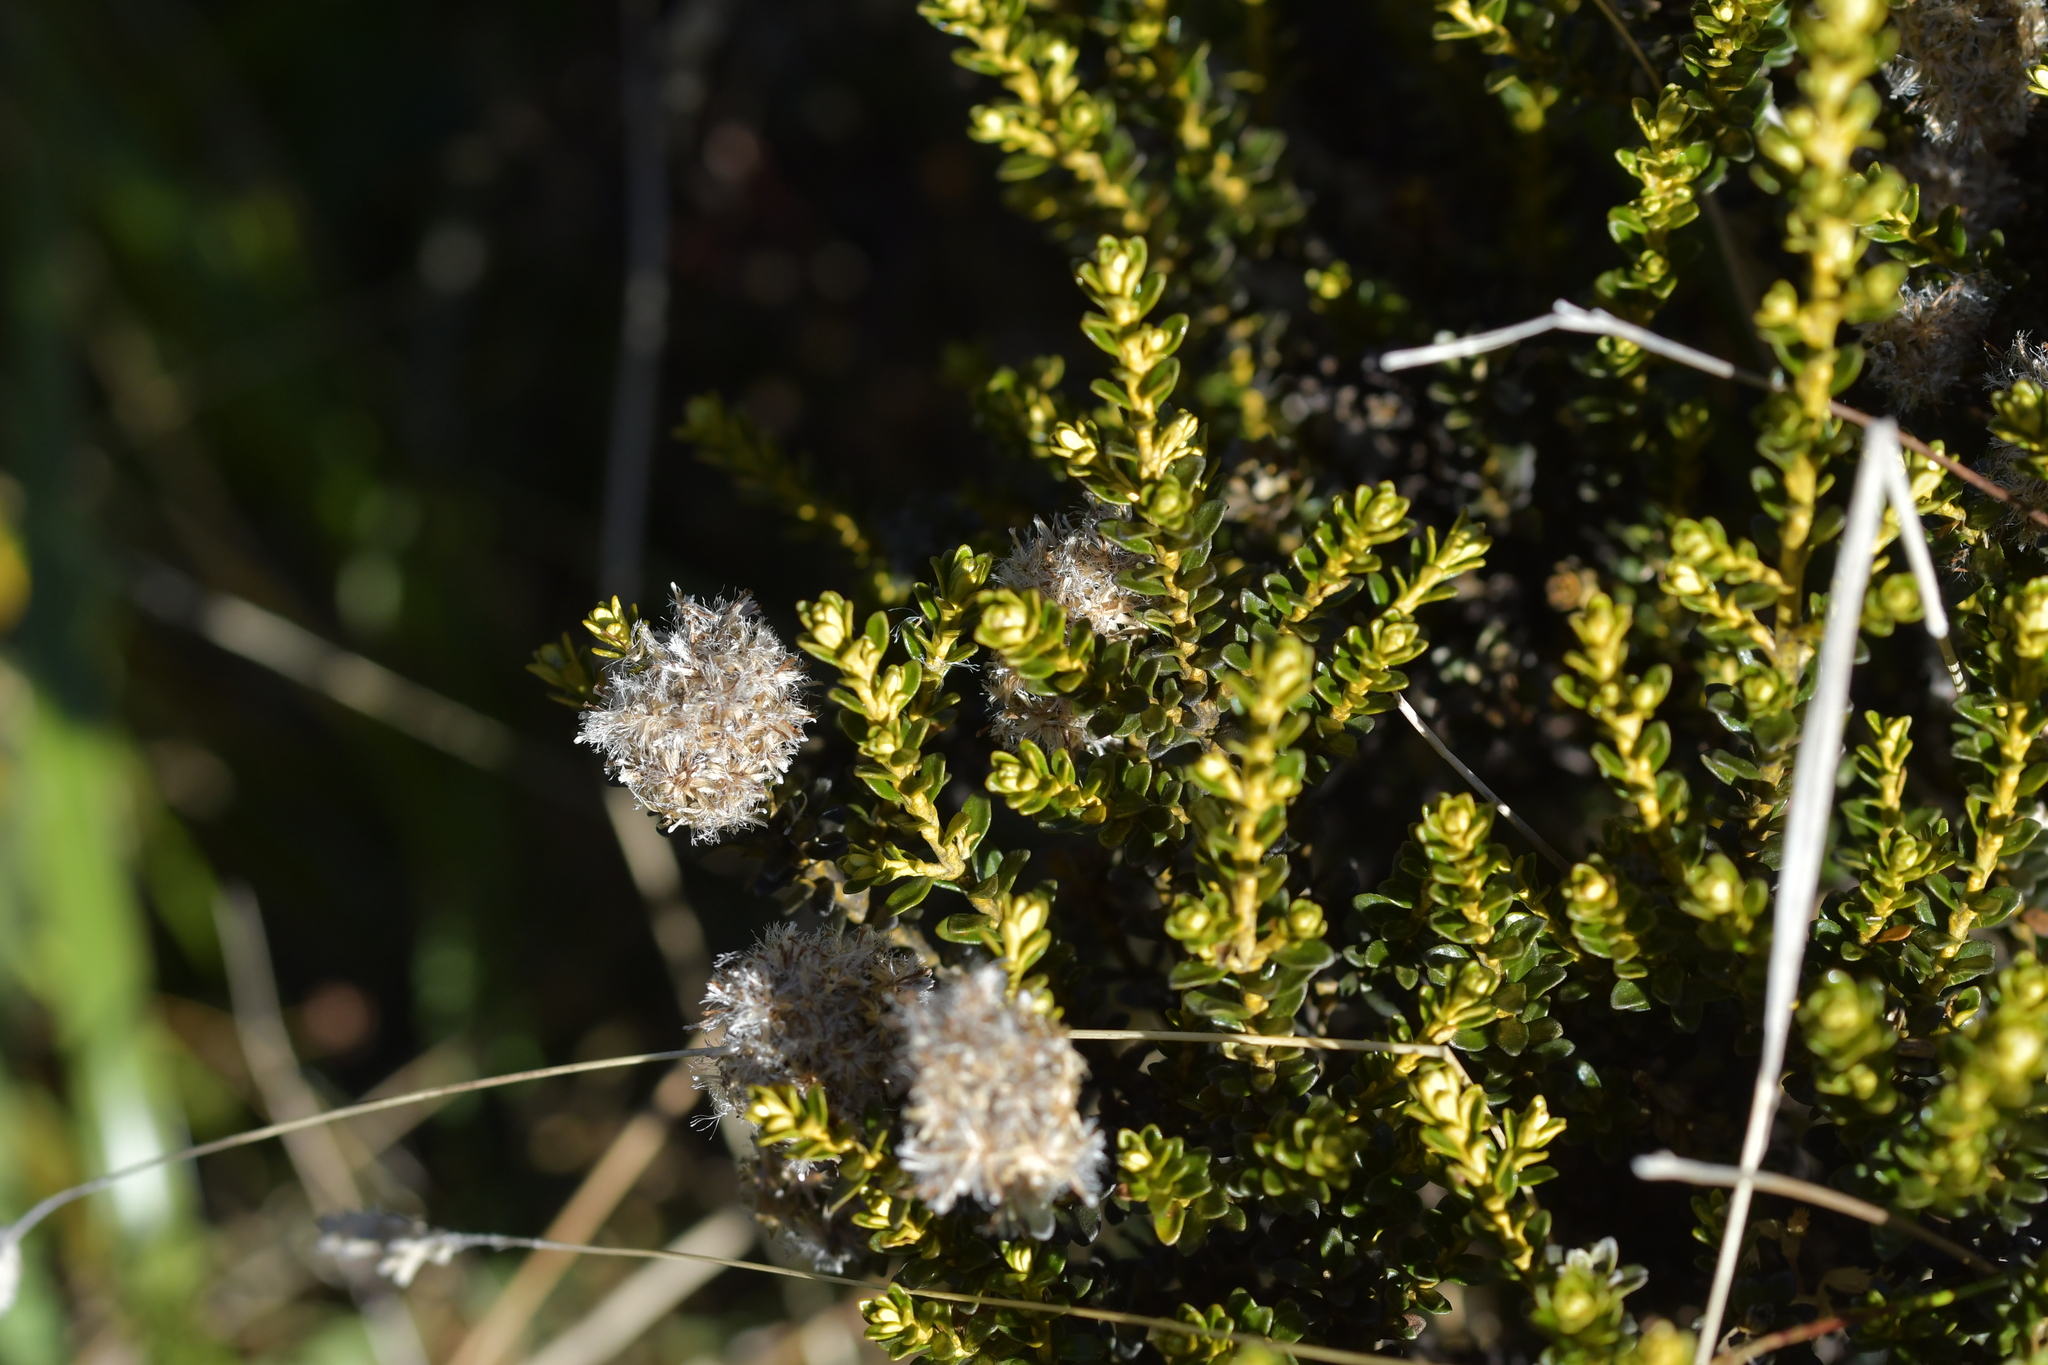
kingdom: Plantae
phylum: Tracheophyta
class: Magnoliopsida
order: Asterales
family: Asteraceae
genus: Ozothamnus
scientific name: Ozothamnus leptophyllus
